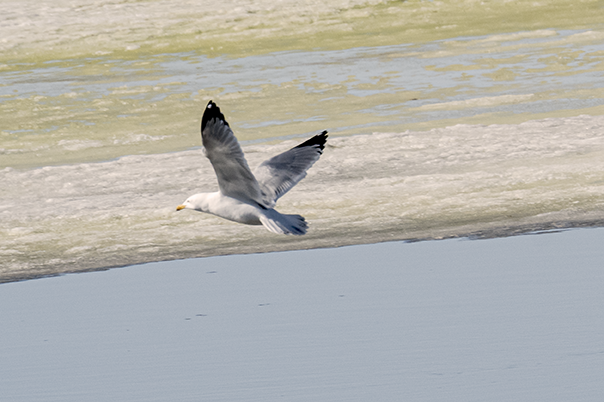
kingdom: Animalia
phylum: Chordata
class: Aves
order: Charadriiformes
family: Laridae
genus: Larus
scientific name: Larus argentatus
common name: Herring gull
